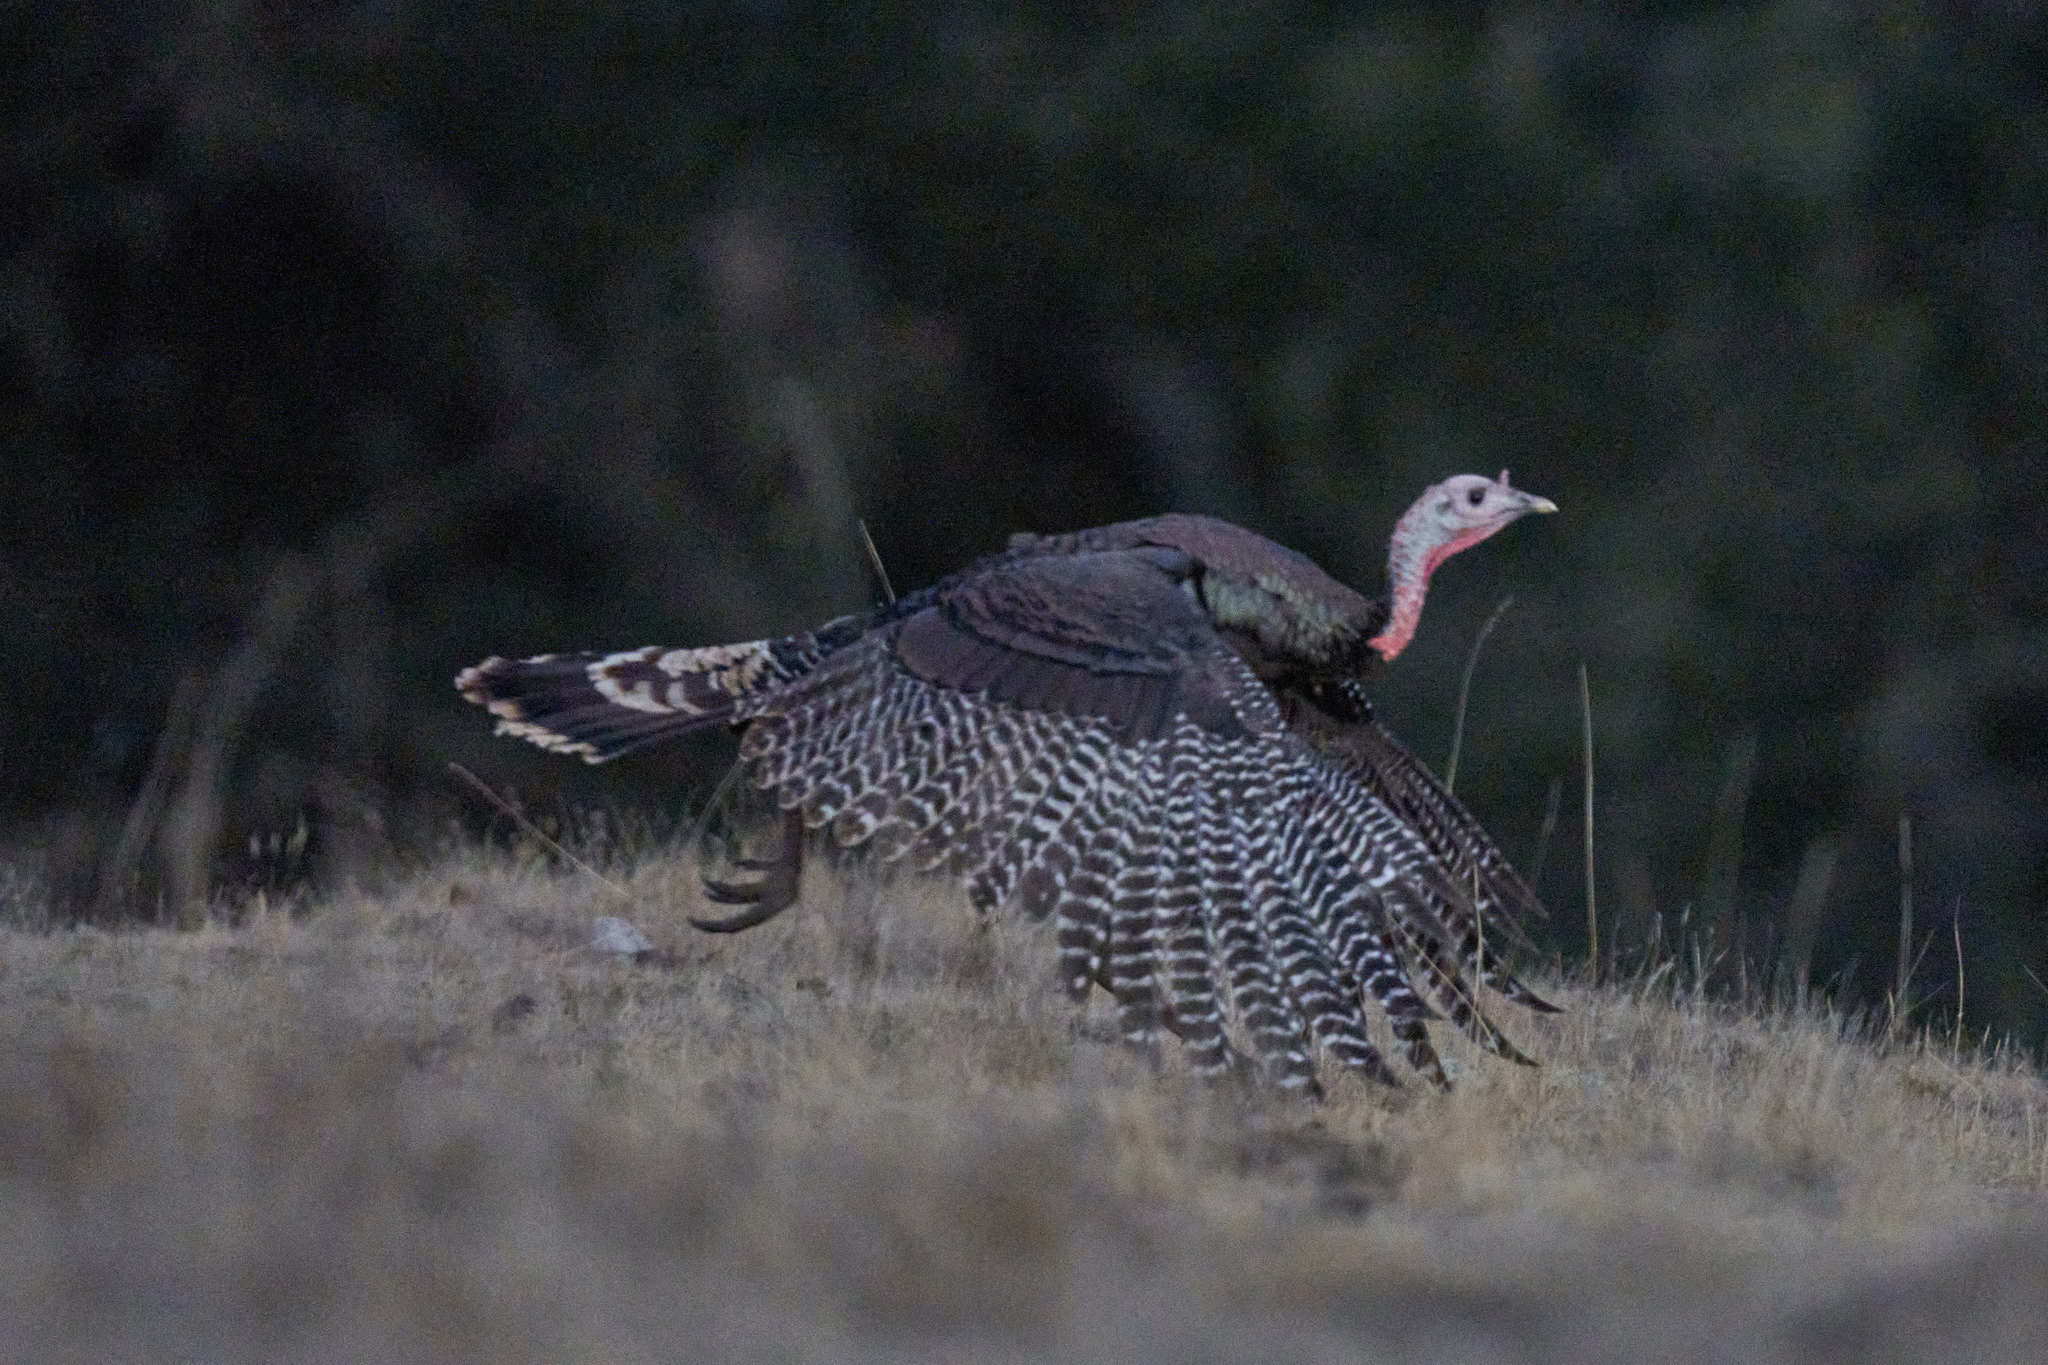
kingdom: Animalia
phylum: Chordata
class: Aves
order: Galliformes
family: Phasianidae
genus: Meleagris
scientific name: Meleagris gallopavo
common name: Wild turkey
